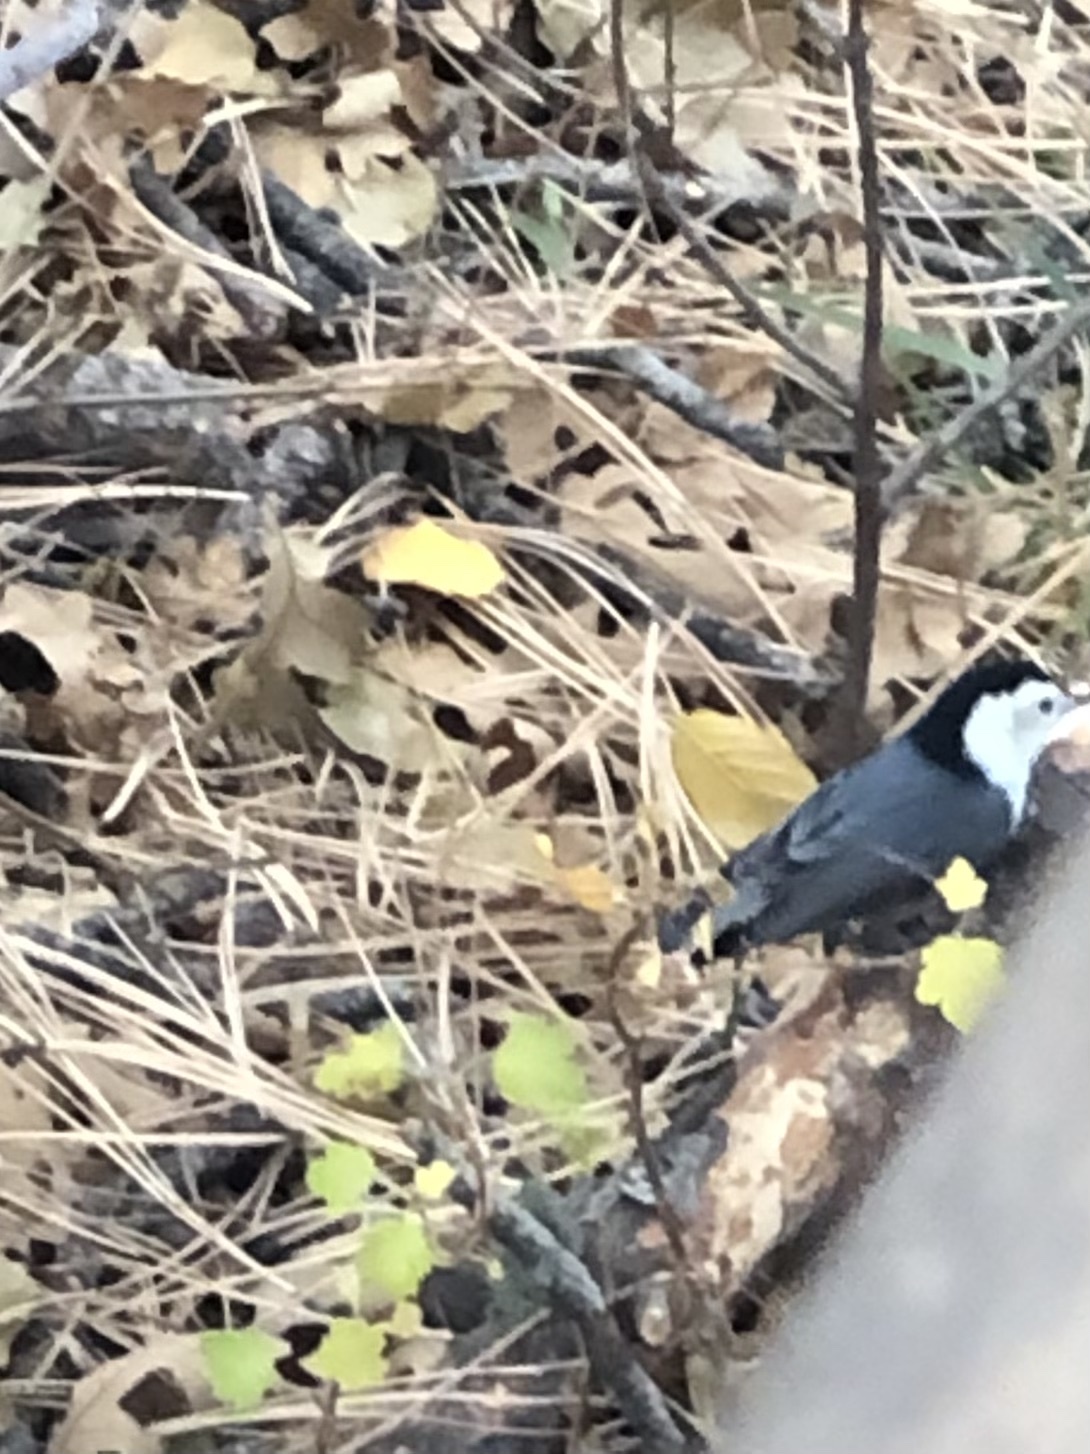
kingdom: Animalia
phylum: Chordata
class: Aves
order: Passeriformes
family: Sittidae
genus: Sitta
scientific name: Sitta carolinensis
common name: White-breasted nuthatch
